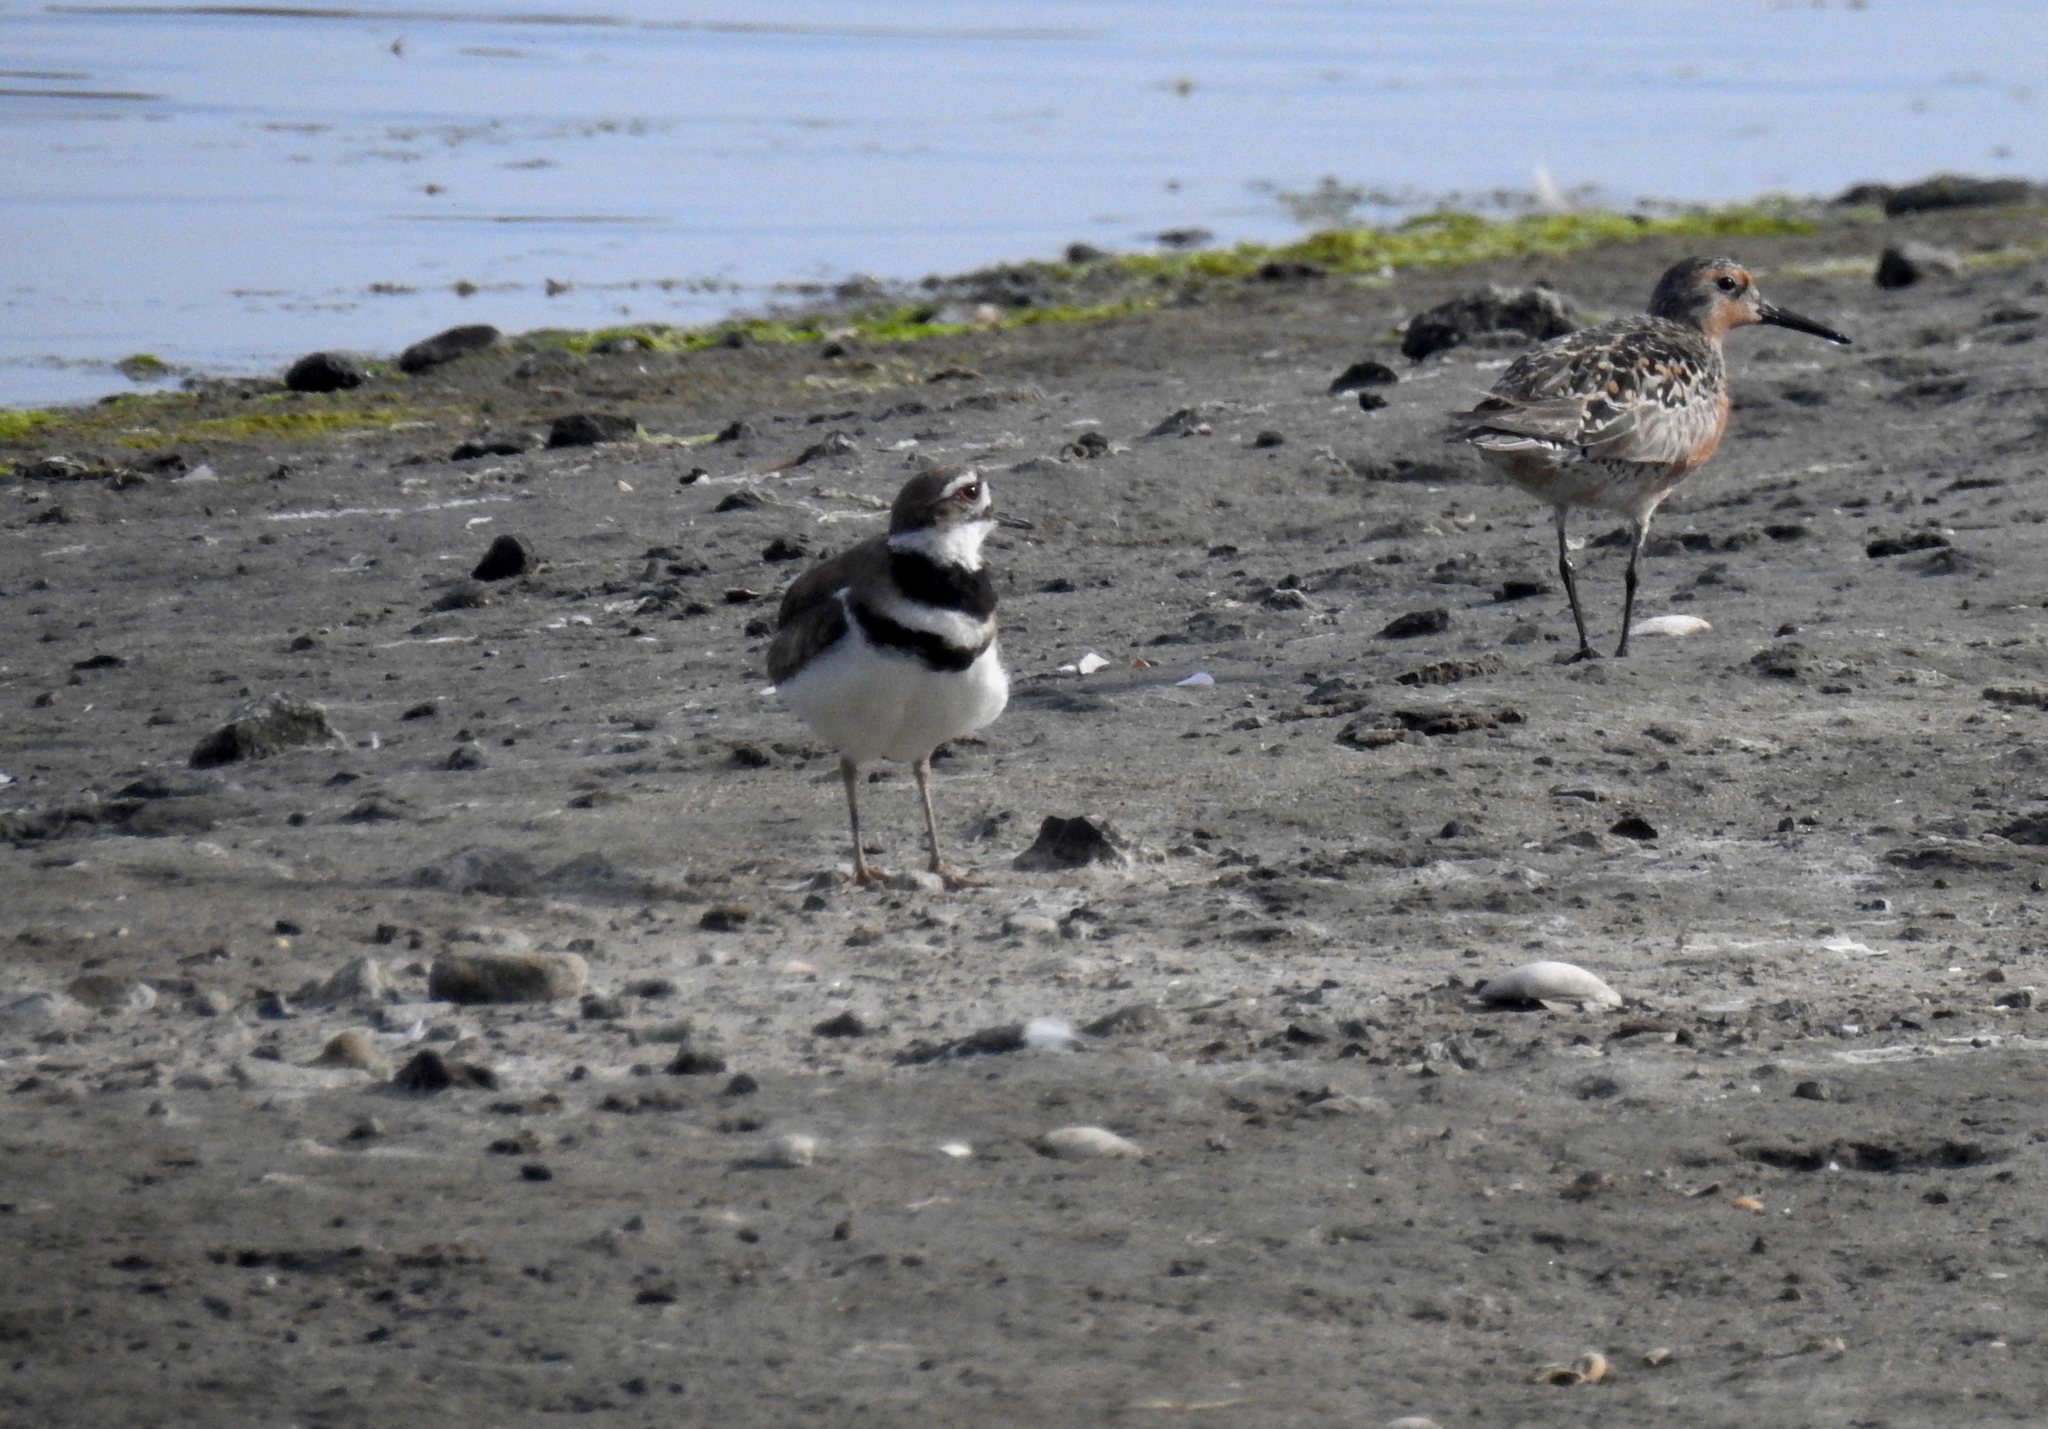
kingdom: Animalia
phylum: Chordata
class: Aves
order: Charadriiformes
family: Scolopacidae
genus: Calidris
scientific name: Calidris canutus
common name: Red knot
